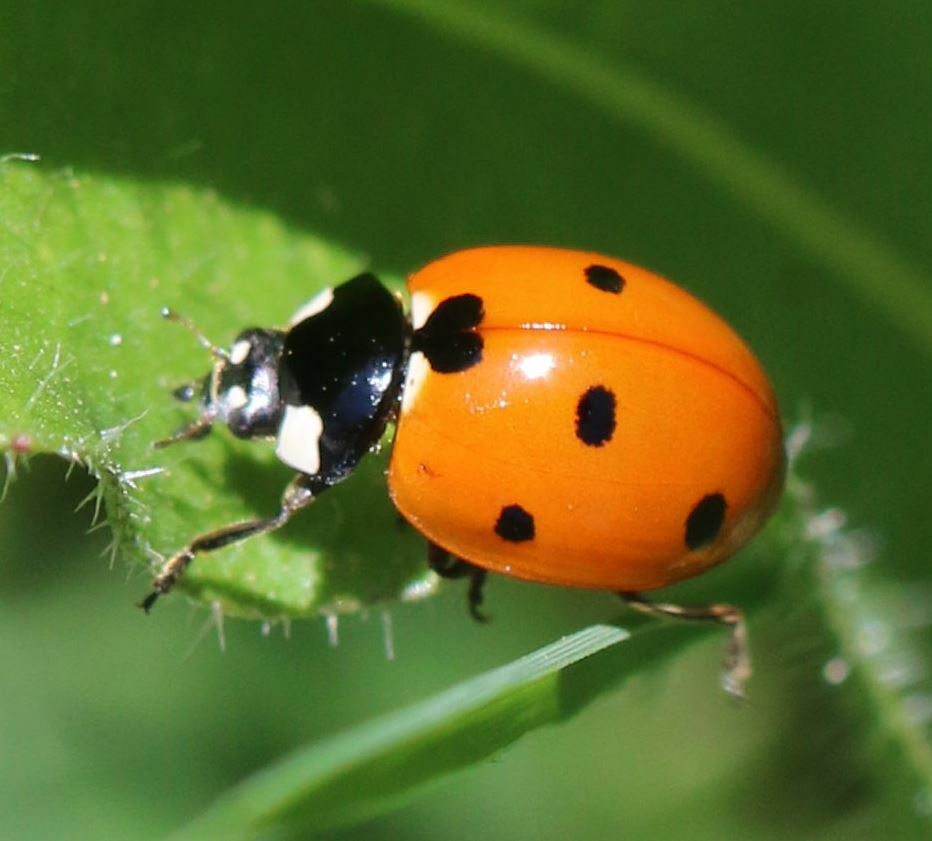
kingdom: Animalia
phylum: Arthropoda
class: Insecta
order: Coleoptera
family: Coccinellidae
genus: Coccinella
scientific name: Coccinella septempunctata
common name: Sevenspotted lady beetle
